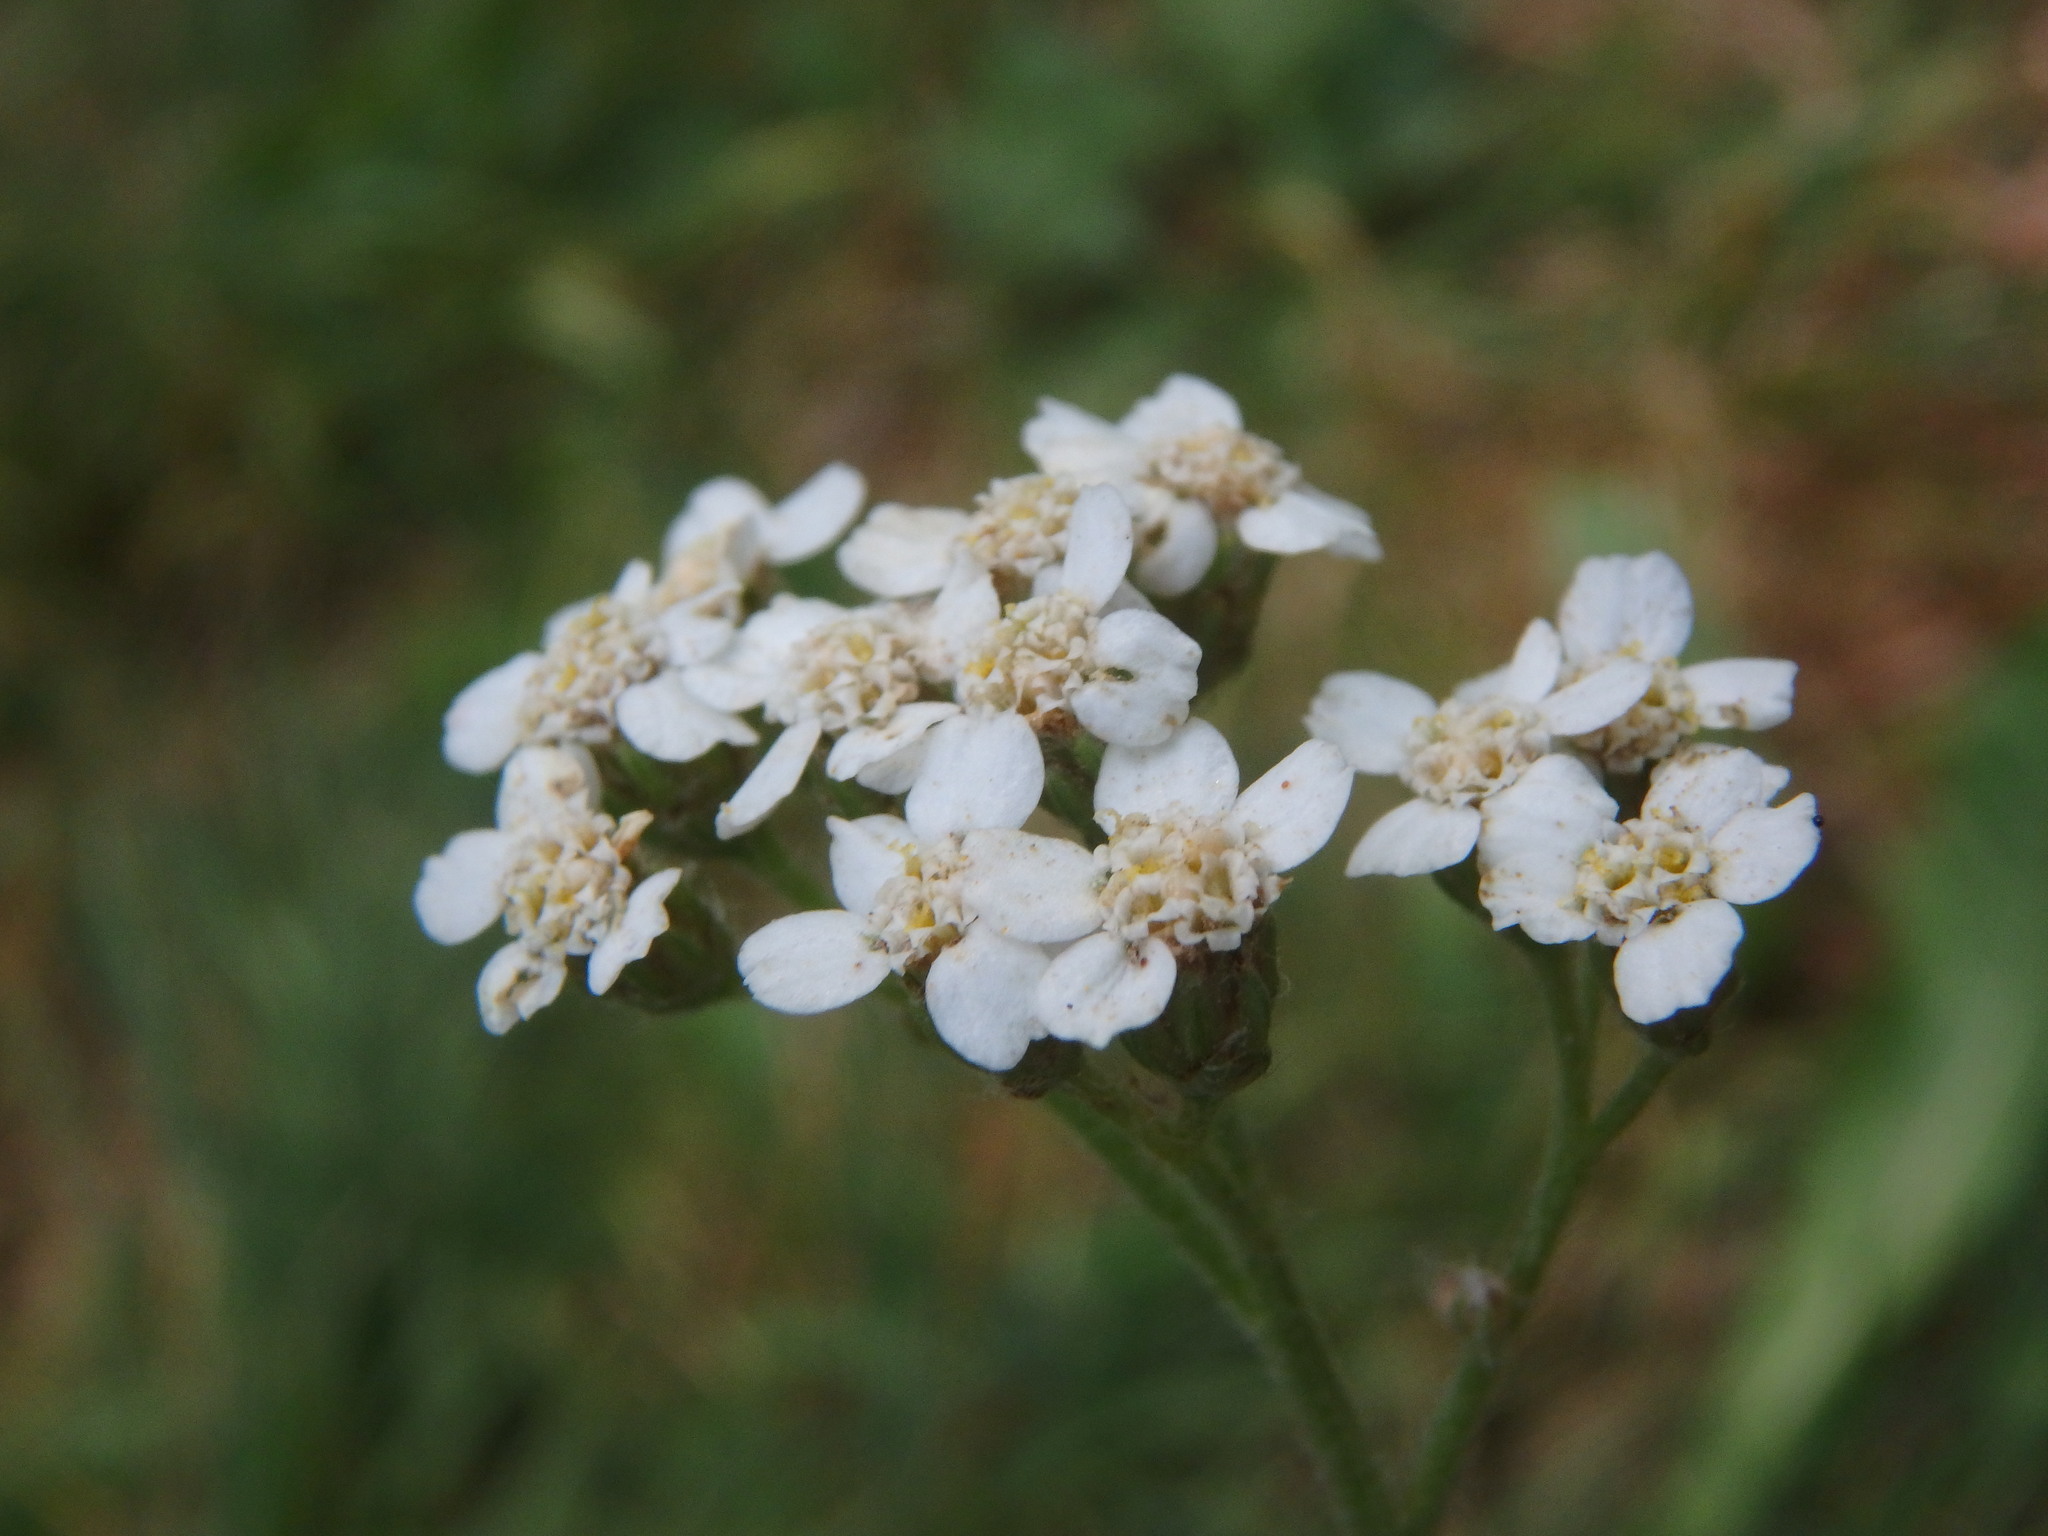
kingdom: Plantae
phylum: Tracheophyta
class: Magnoliopsida
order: Asterales
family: Asteraceae
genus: Achillea
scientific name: Achillea millefolium
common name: Yarrow
